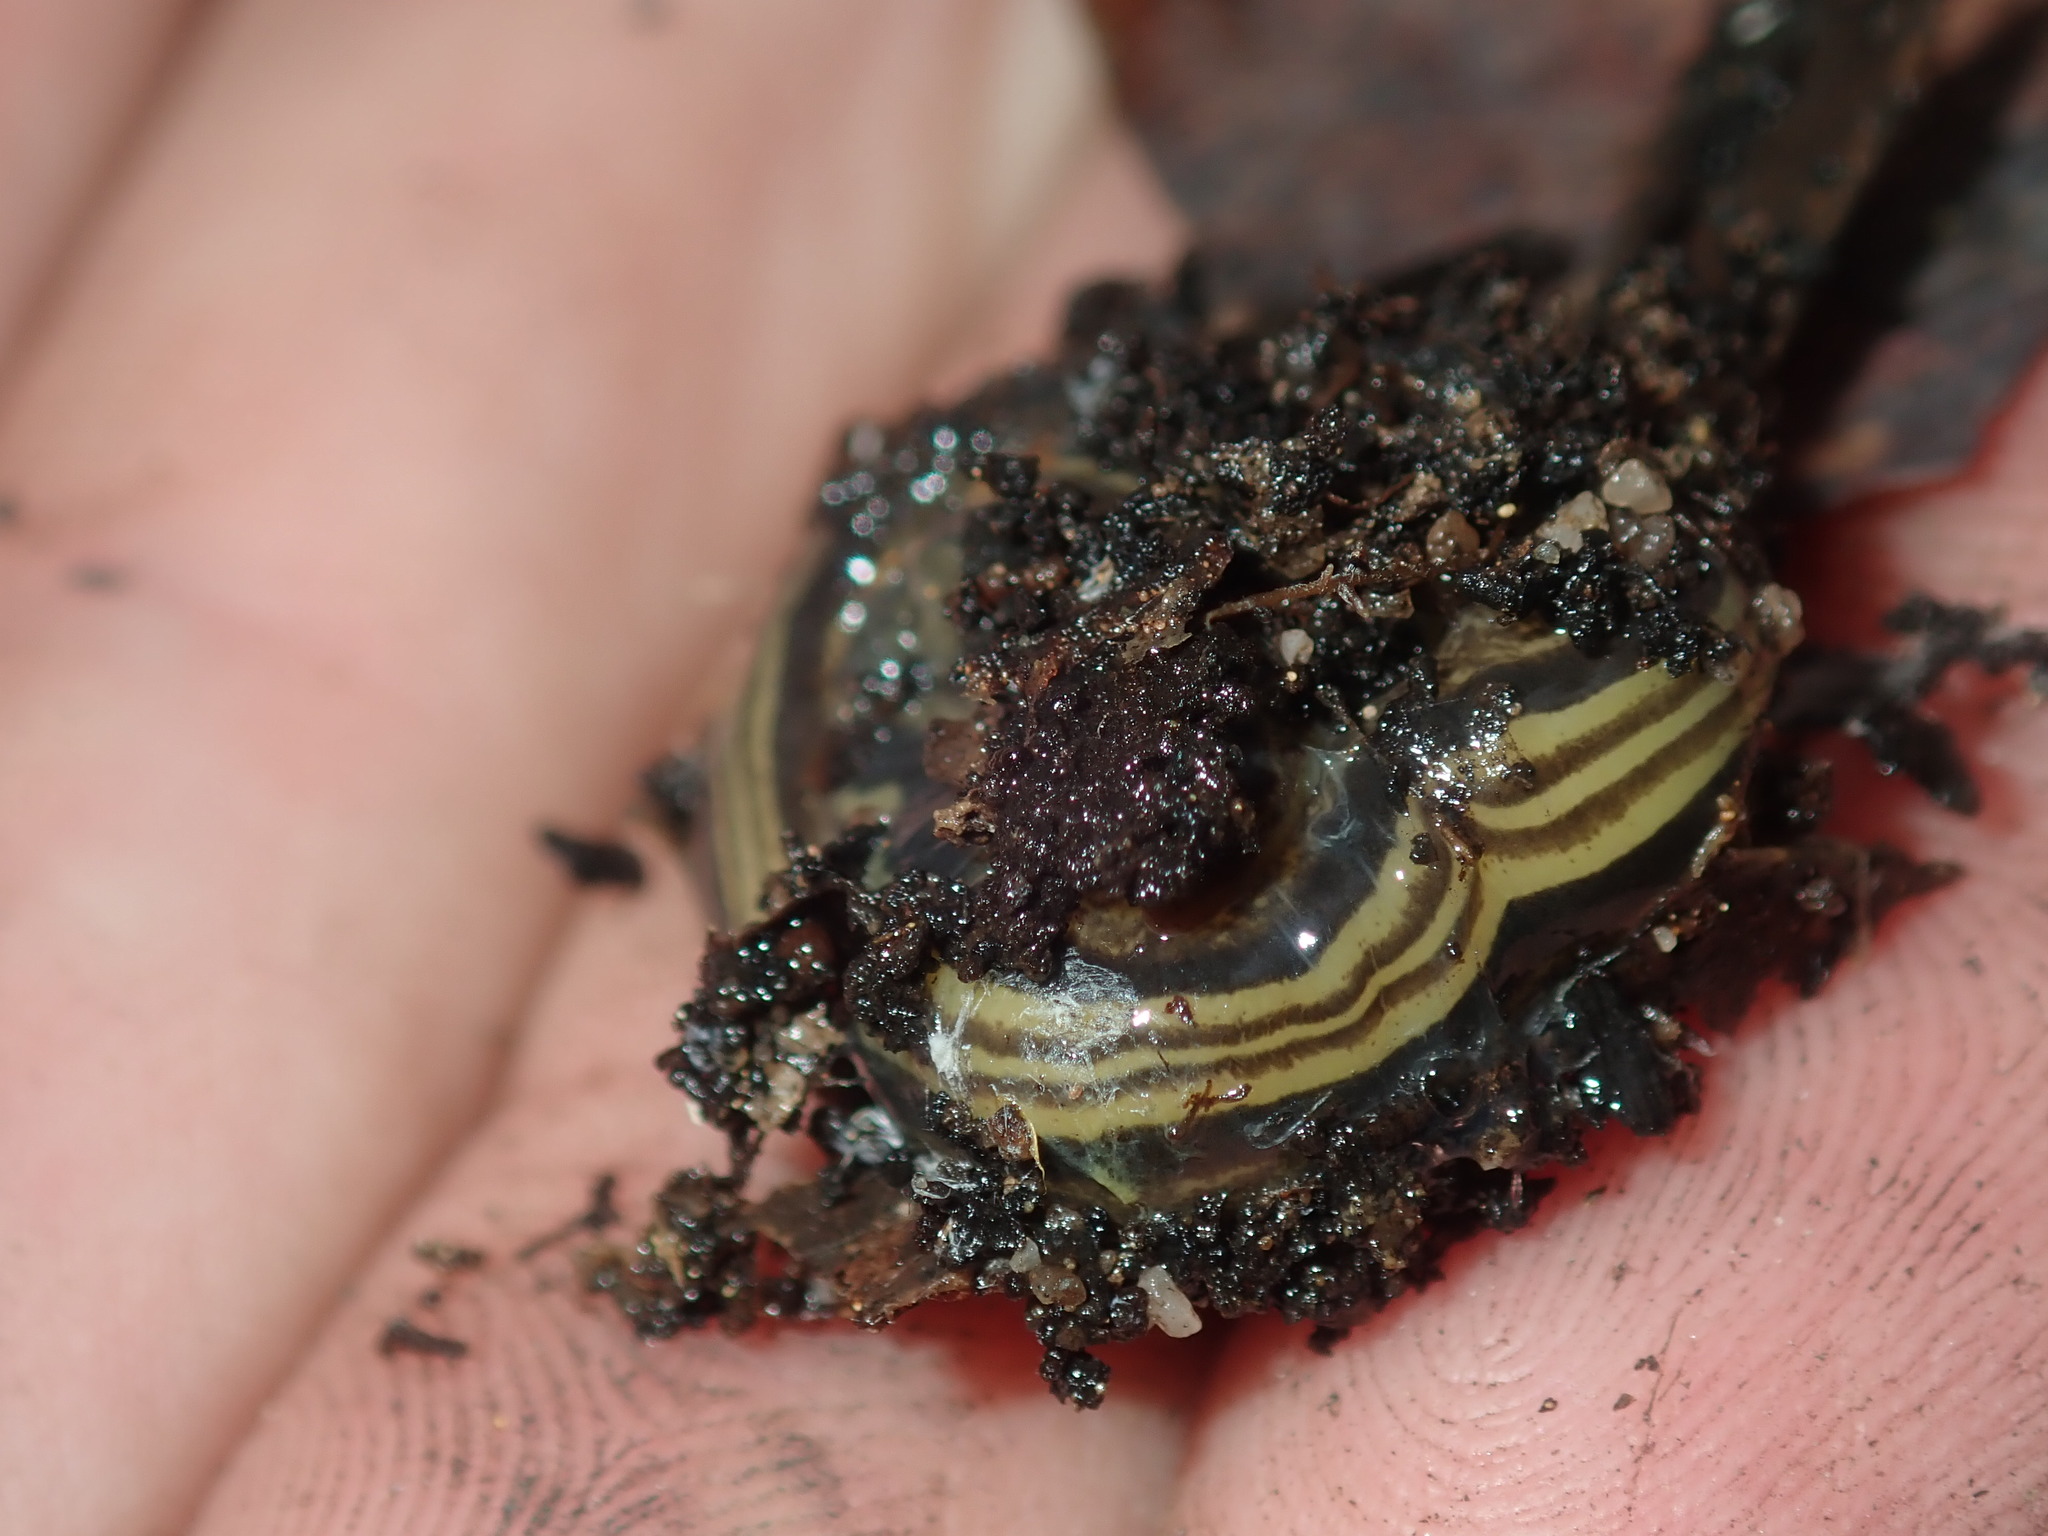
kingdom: Animalia
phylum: Platyhelminthes
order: Tricladida
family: Geoplanidae
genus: Caenoplana
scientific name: Caenoplana variegata
